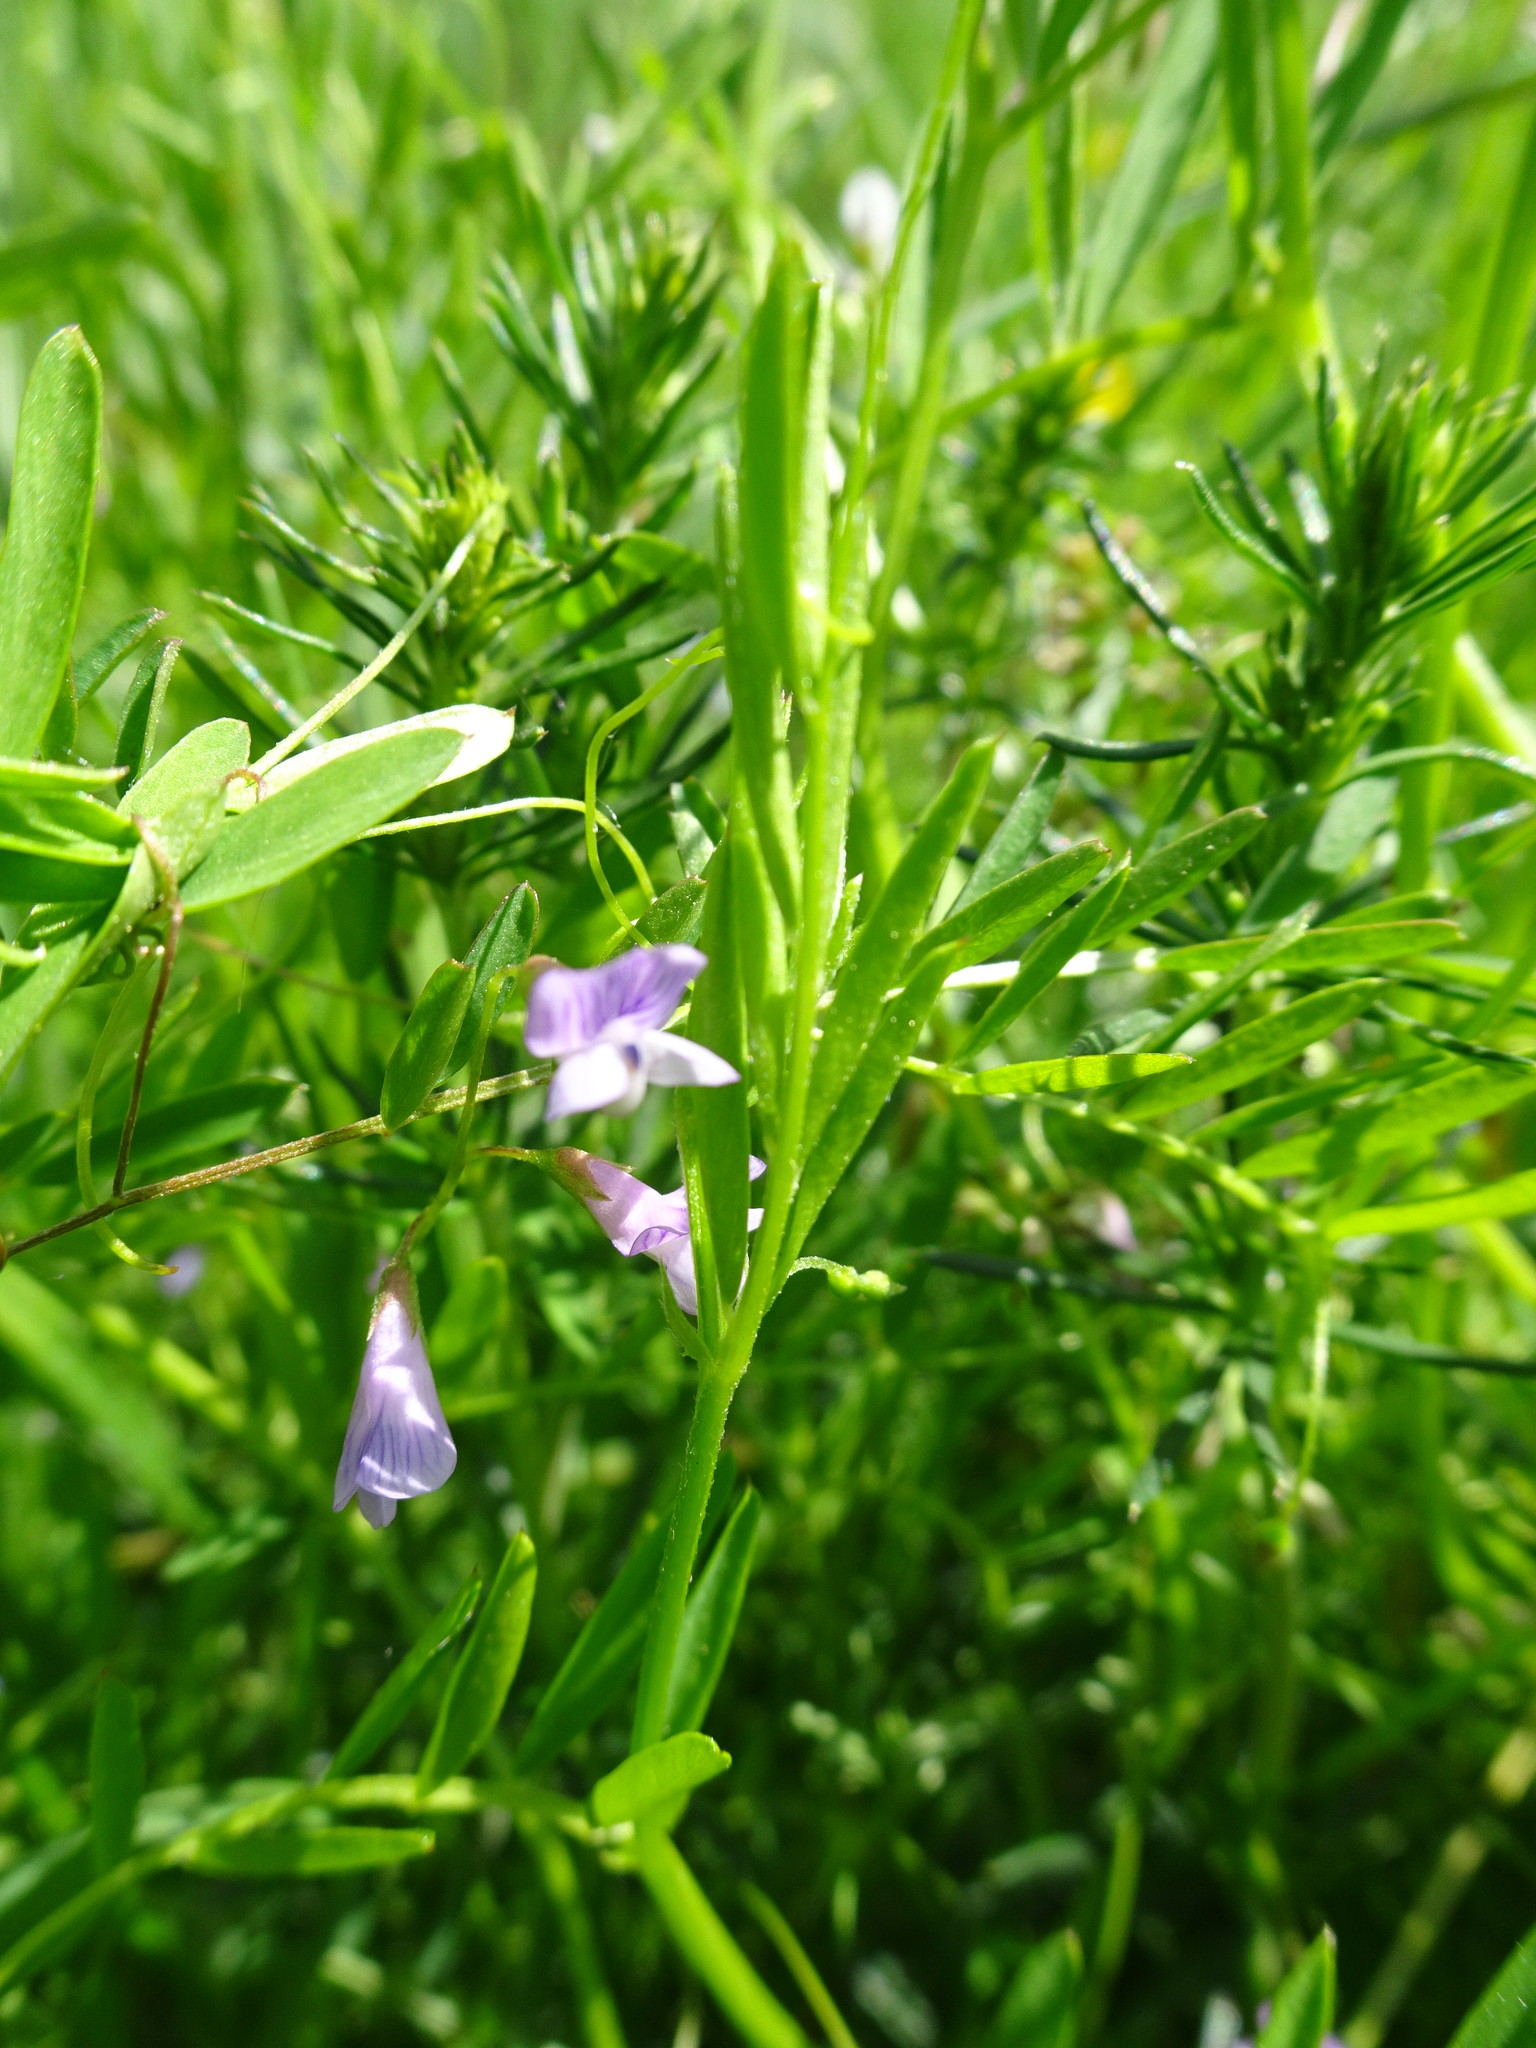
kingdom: Plantae
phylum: Tracheophyta
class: Magnoliopsida
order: Fabales
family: Fabaceae
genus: Vicia
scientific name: Vicia tetrasperma
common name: Smooth tare
